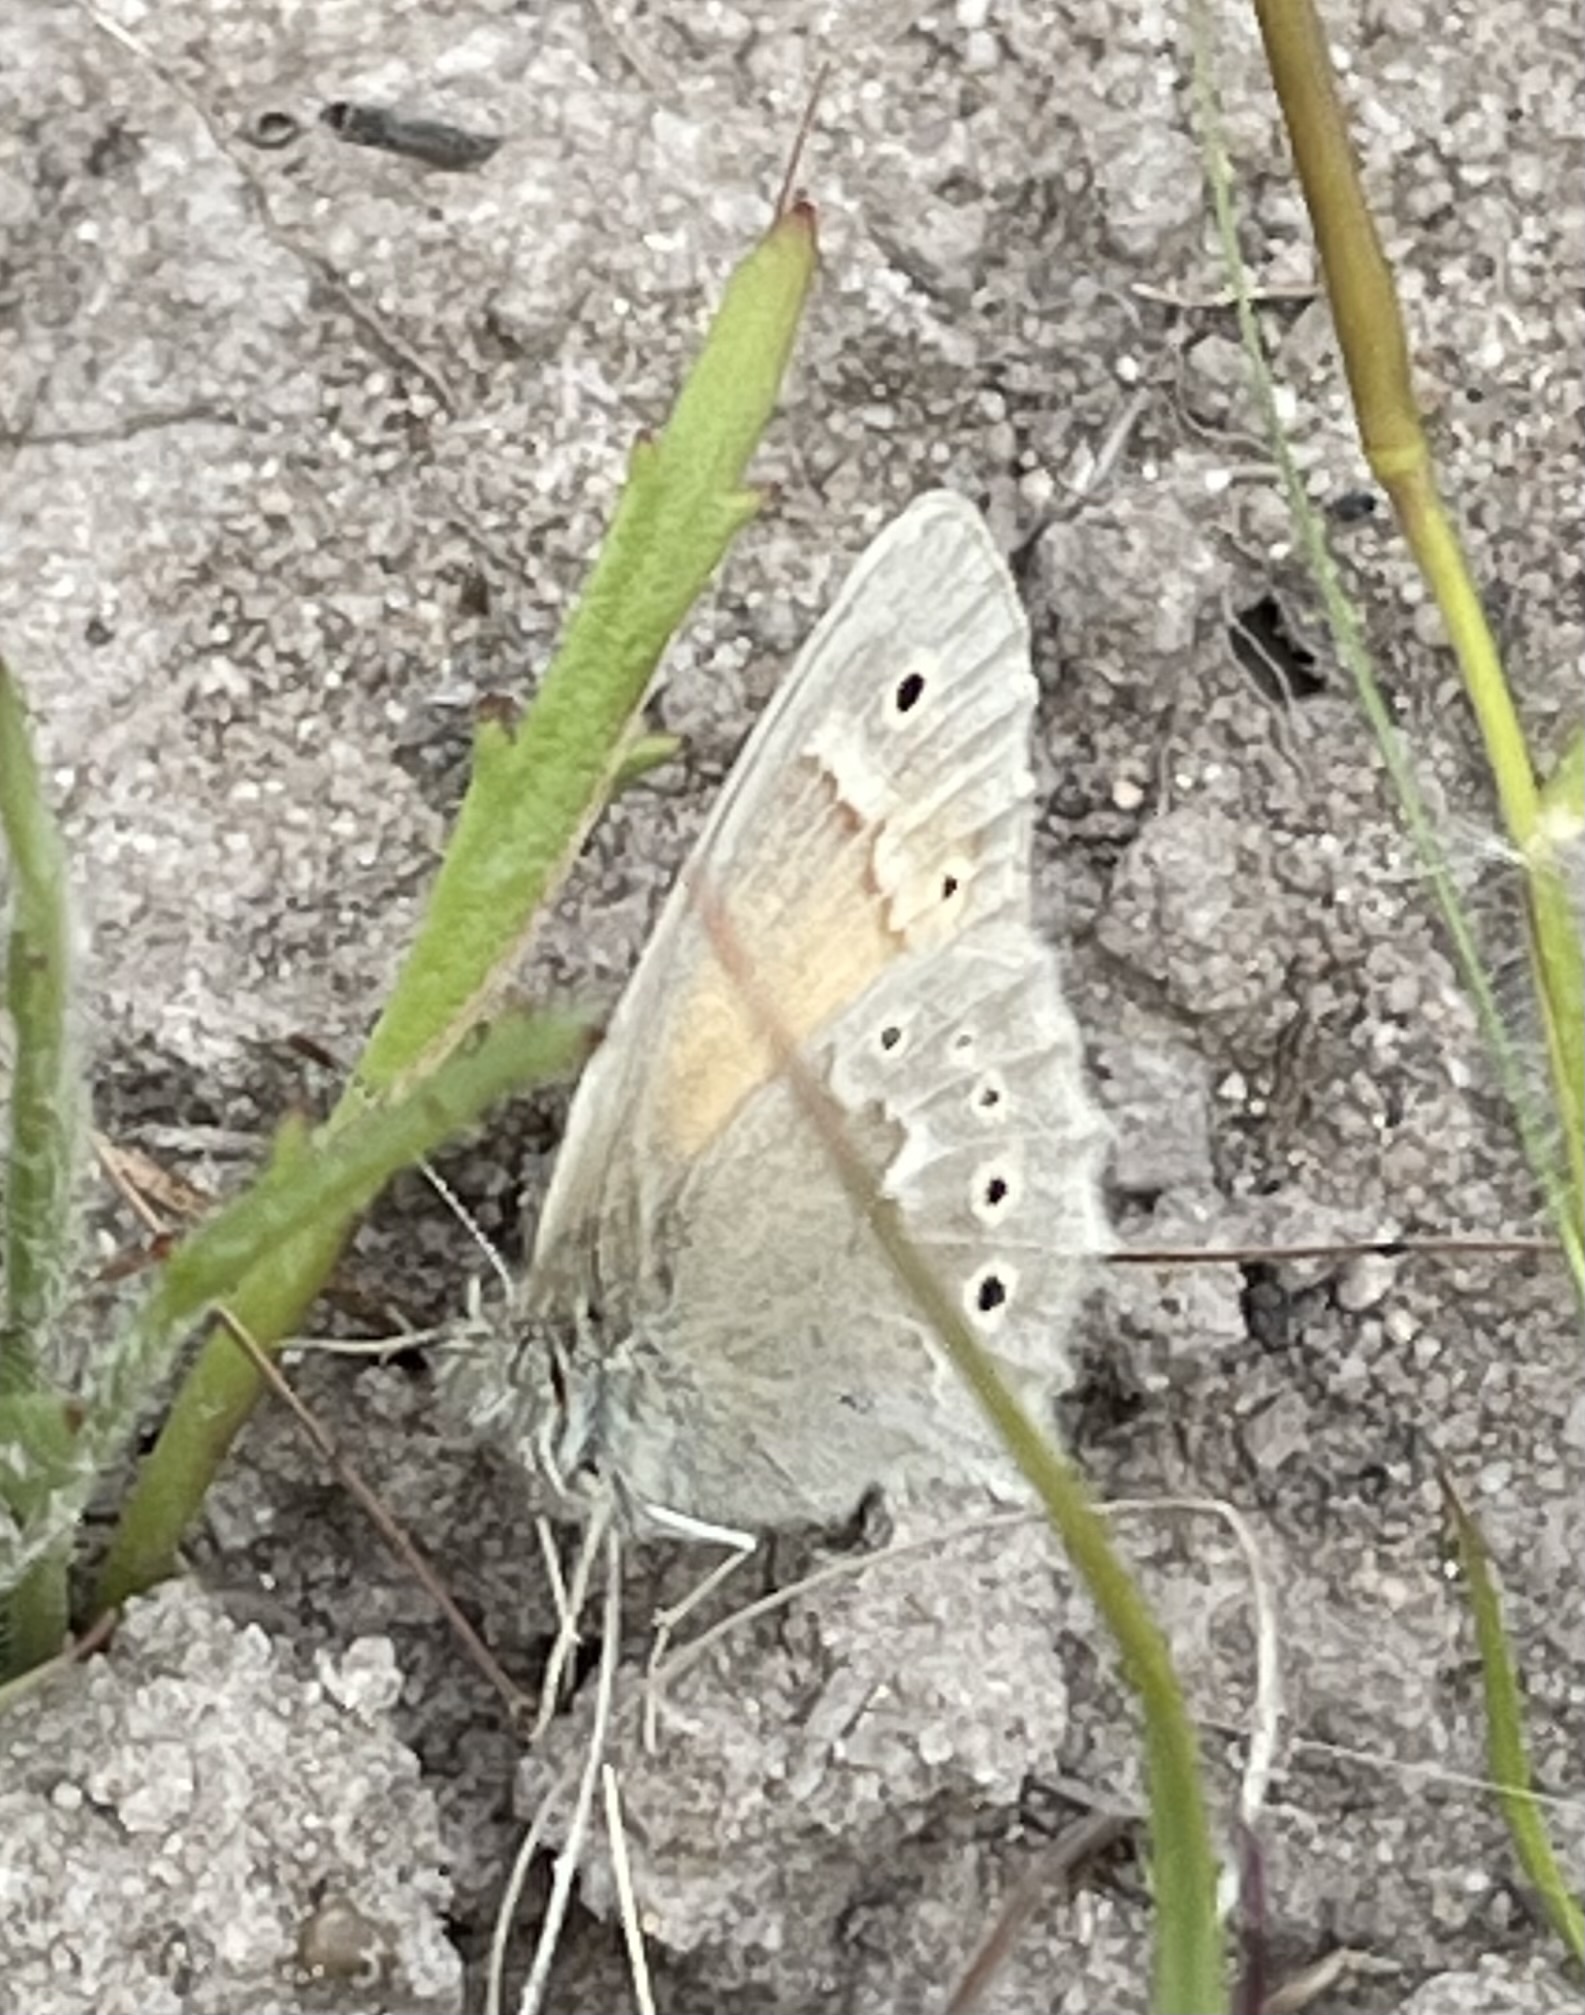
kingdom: Animalia
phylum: Arthropoda
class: Insecta
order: Lepidoptera
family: Nymphalidae
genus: Coenonympha
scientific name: Coenonympha california
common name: Common ringlet
